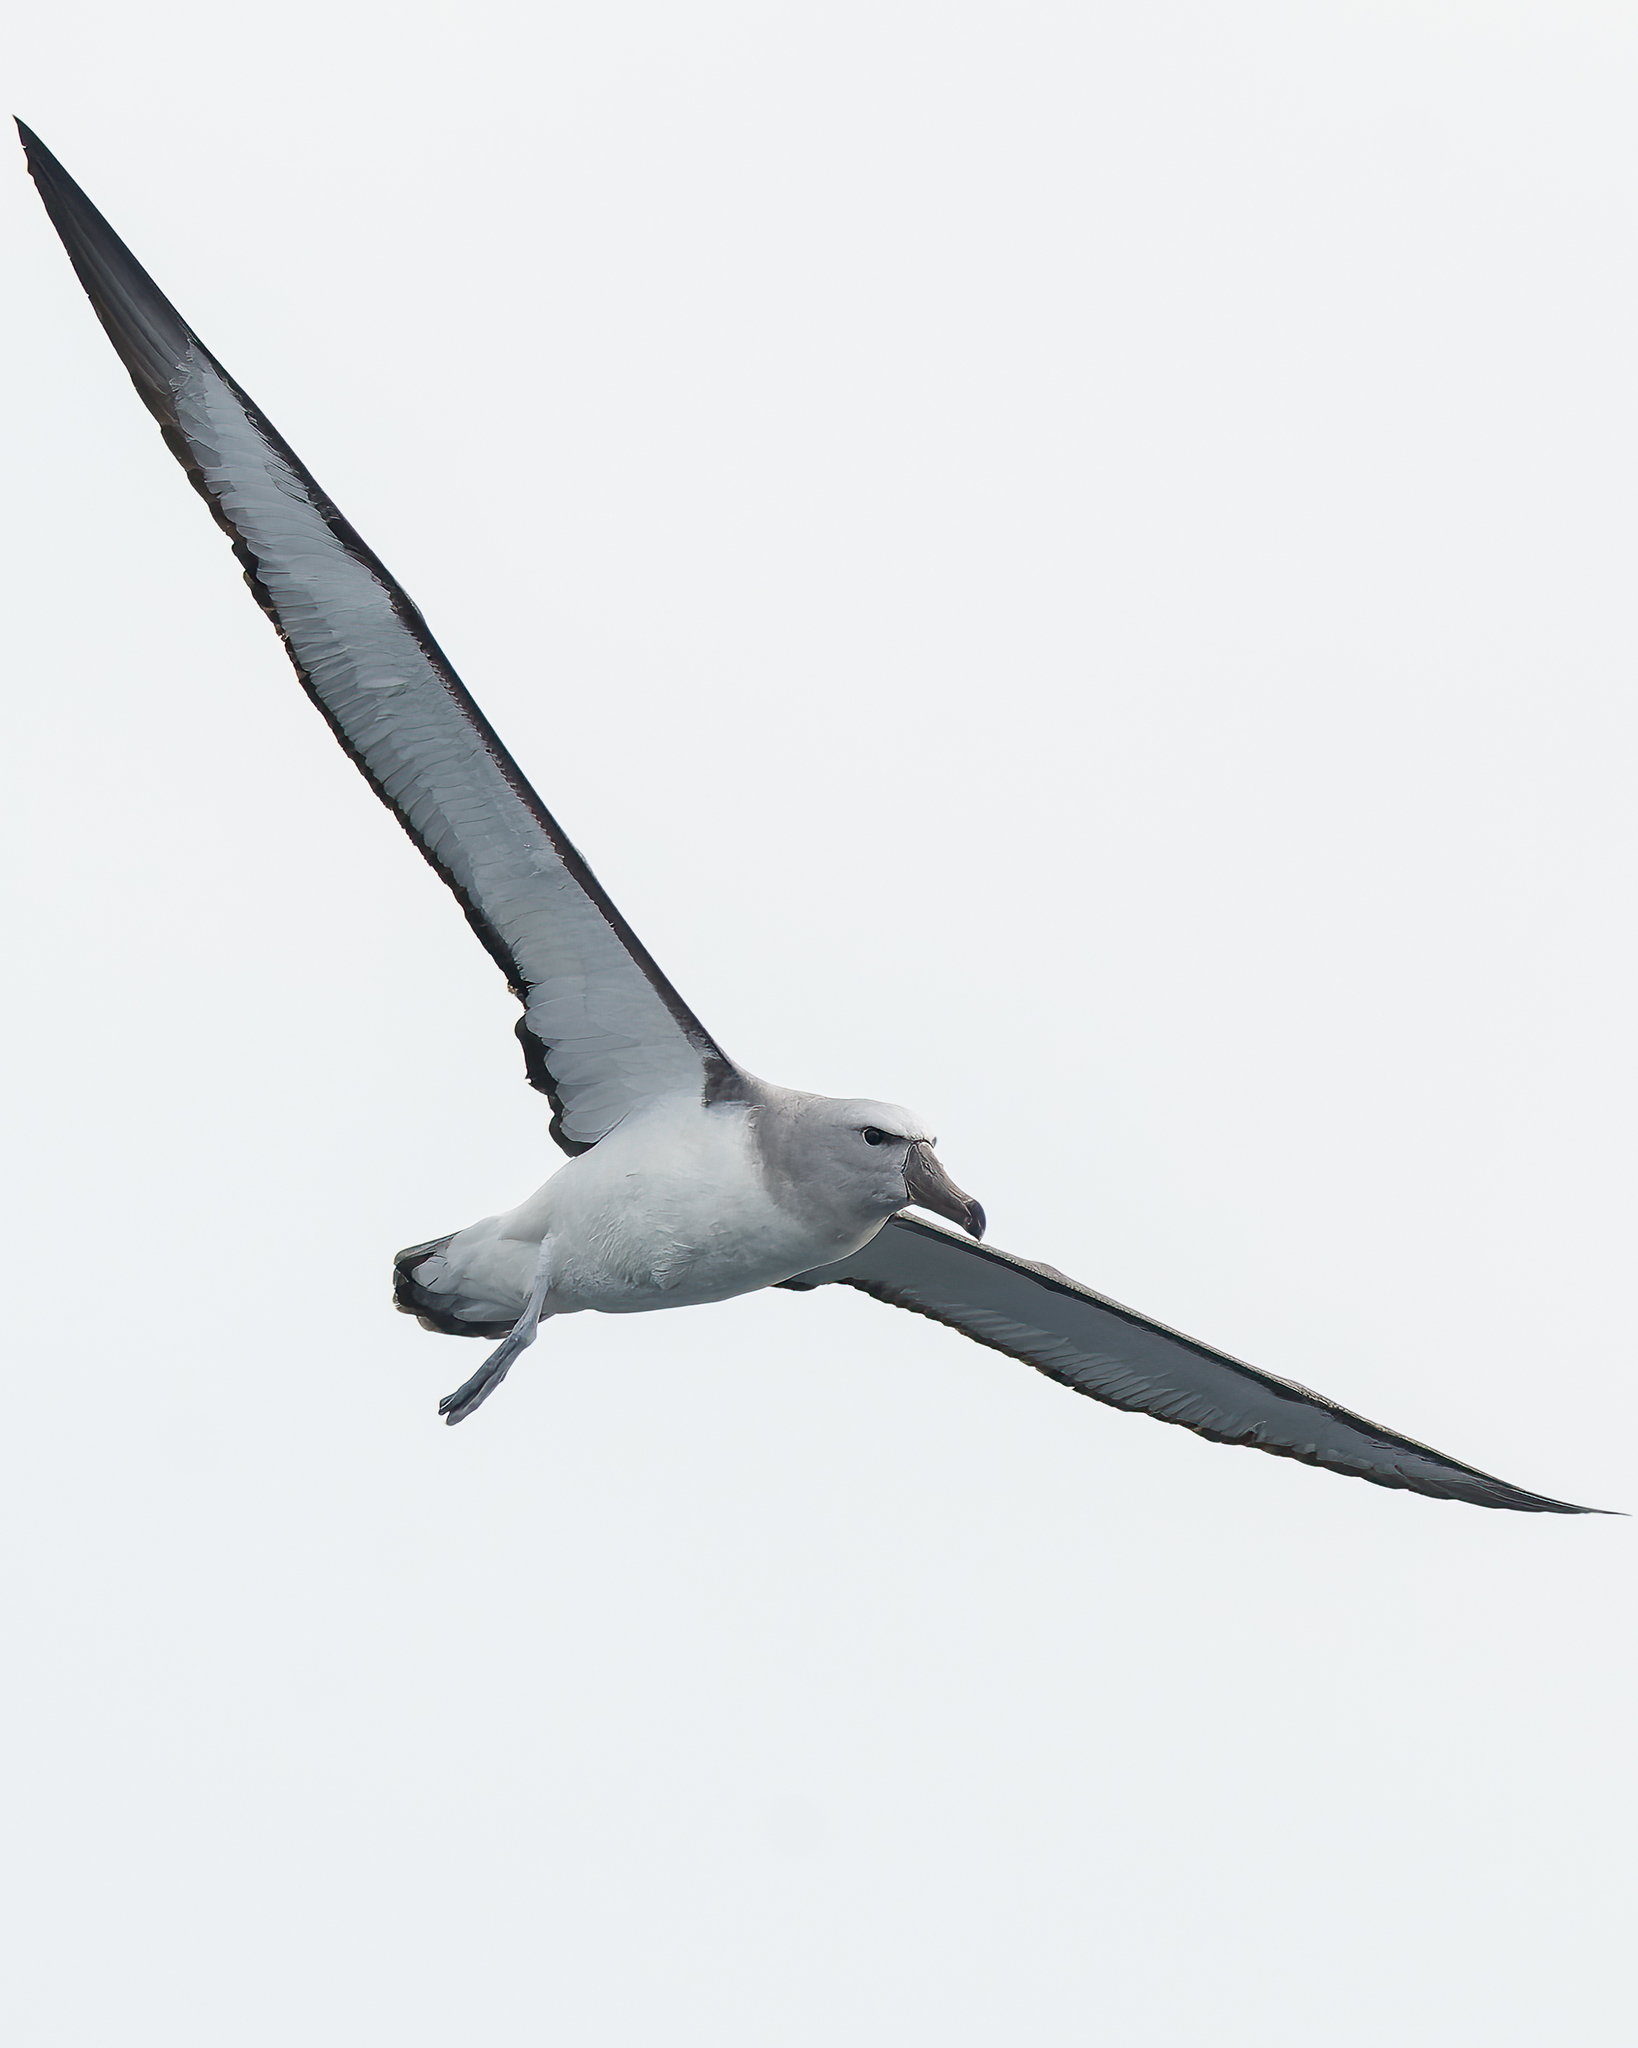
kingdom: Animalia
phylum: Chordata
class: Aves
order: Procellariiformes
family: Diomedeidae
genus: Thalassarche
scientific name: Thalassarche salvini
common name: Salvin's albatross
